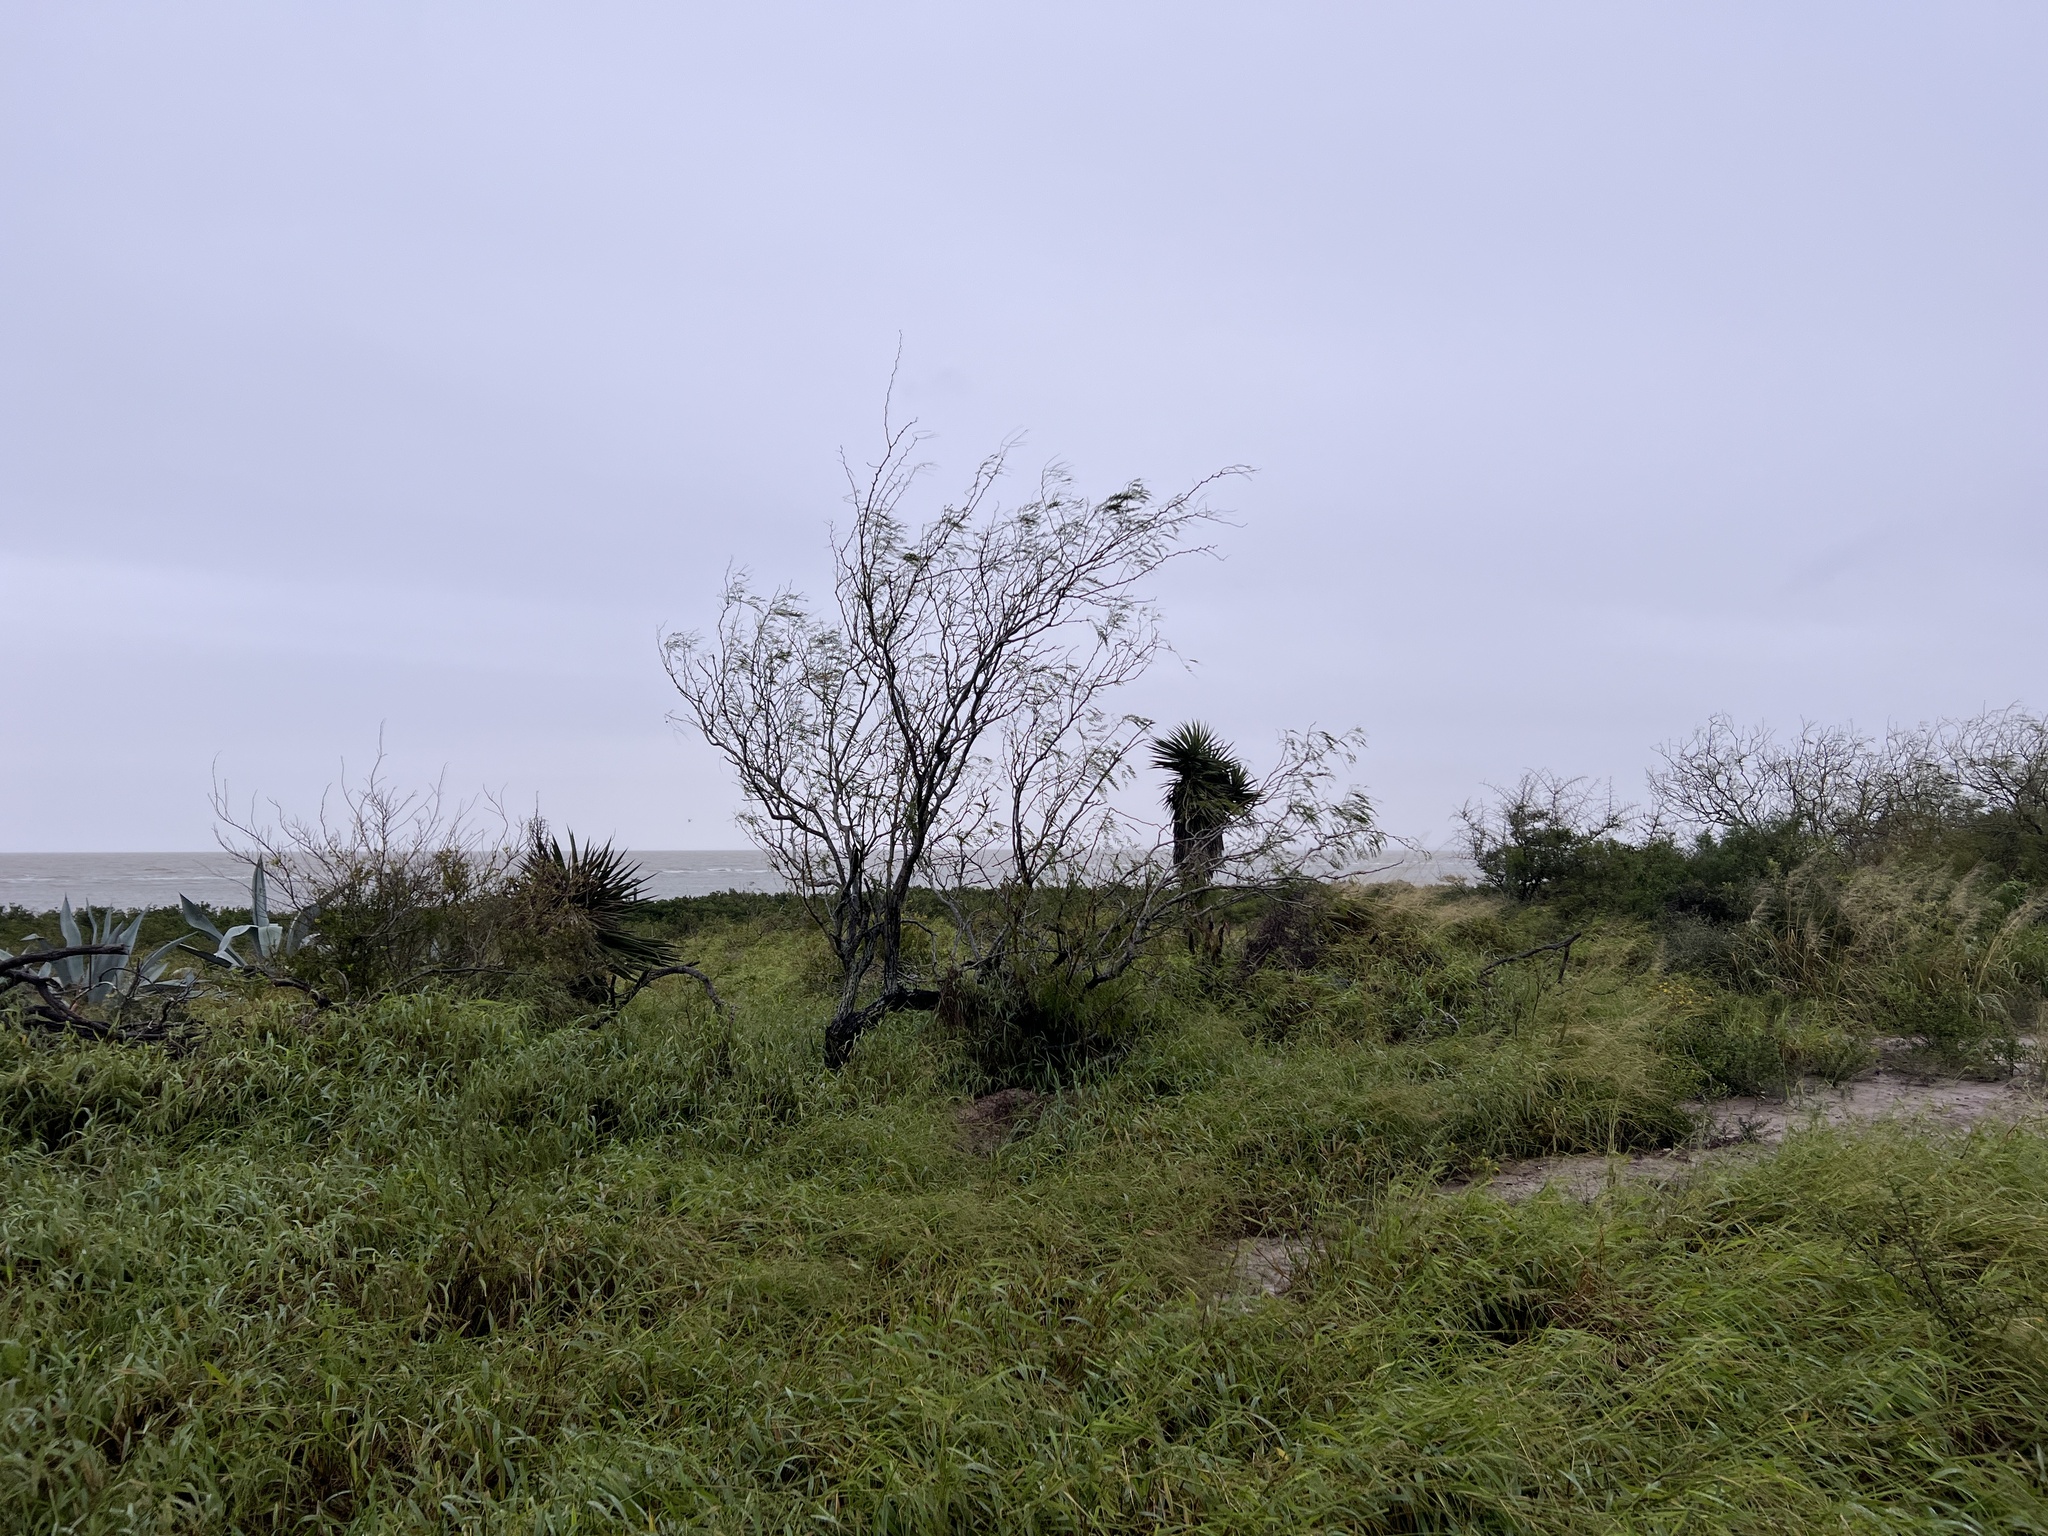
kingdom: Plantae
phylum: Tracheophyta
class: Magnoliopsida
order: Fabales
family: Fabaceae
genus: Prosopis
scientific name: Prosopis glandulosa
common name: Honey mesquite
